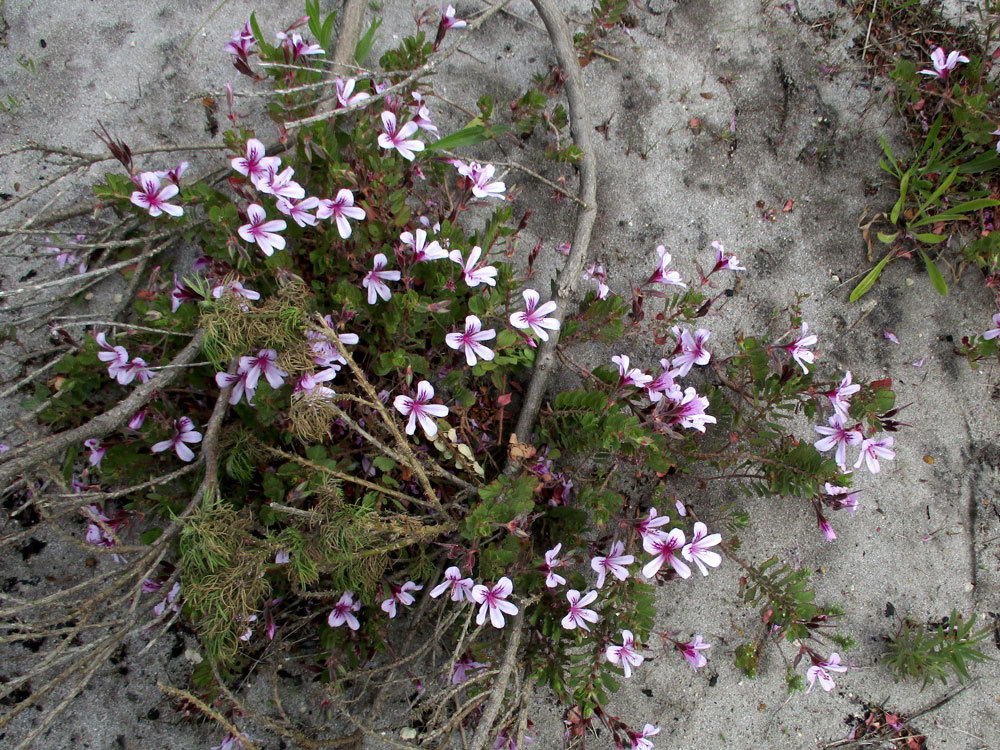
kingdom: Plantae
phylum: Tracheophyta
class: Magnoliopsida
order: Geraniales
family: Geraniaceae
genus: Pelargonium
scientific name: Pelargonium betulinum
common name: Birch-leaf pelargonium
